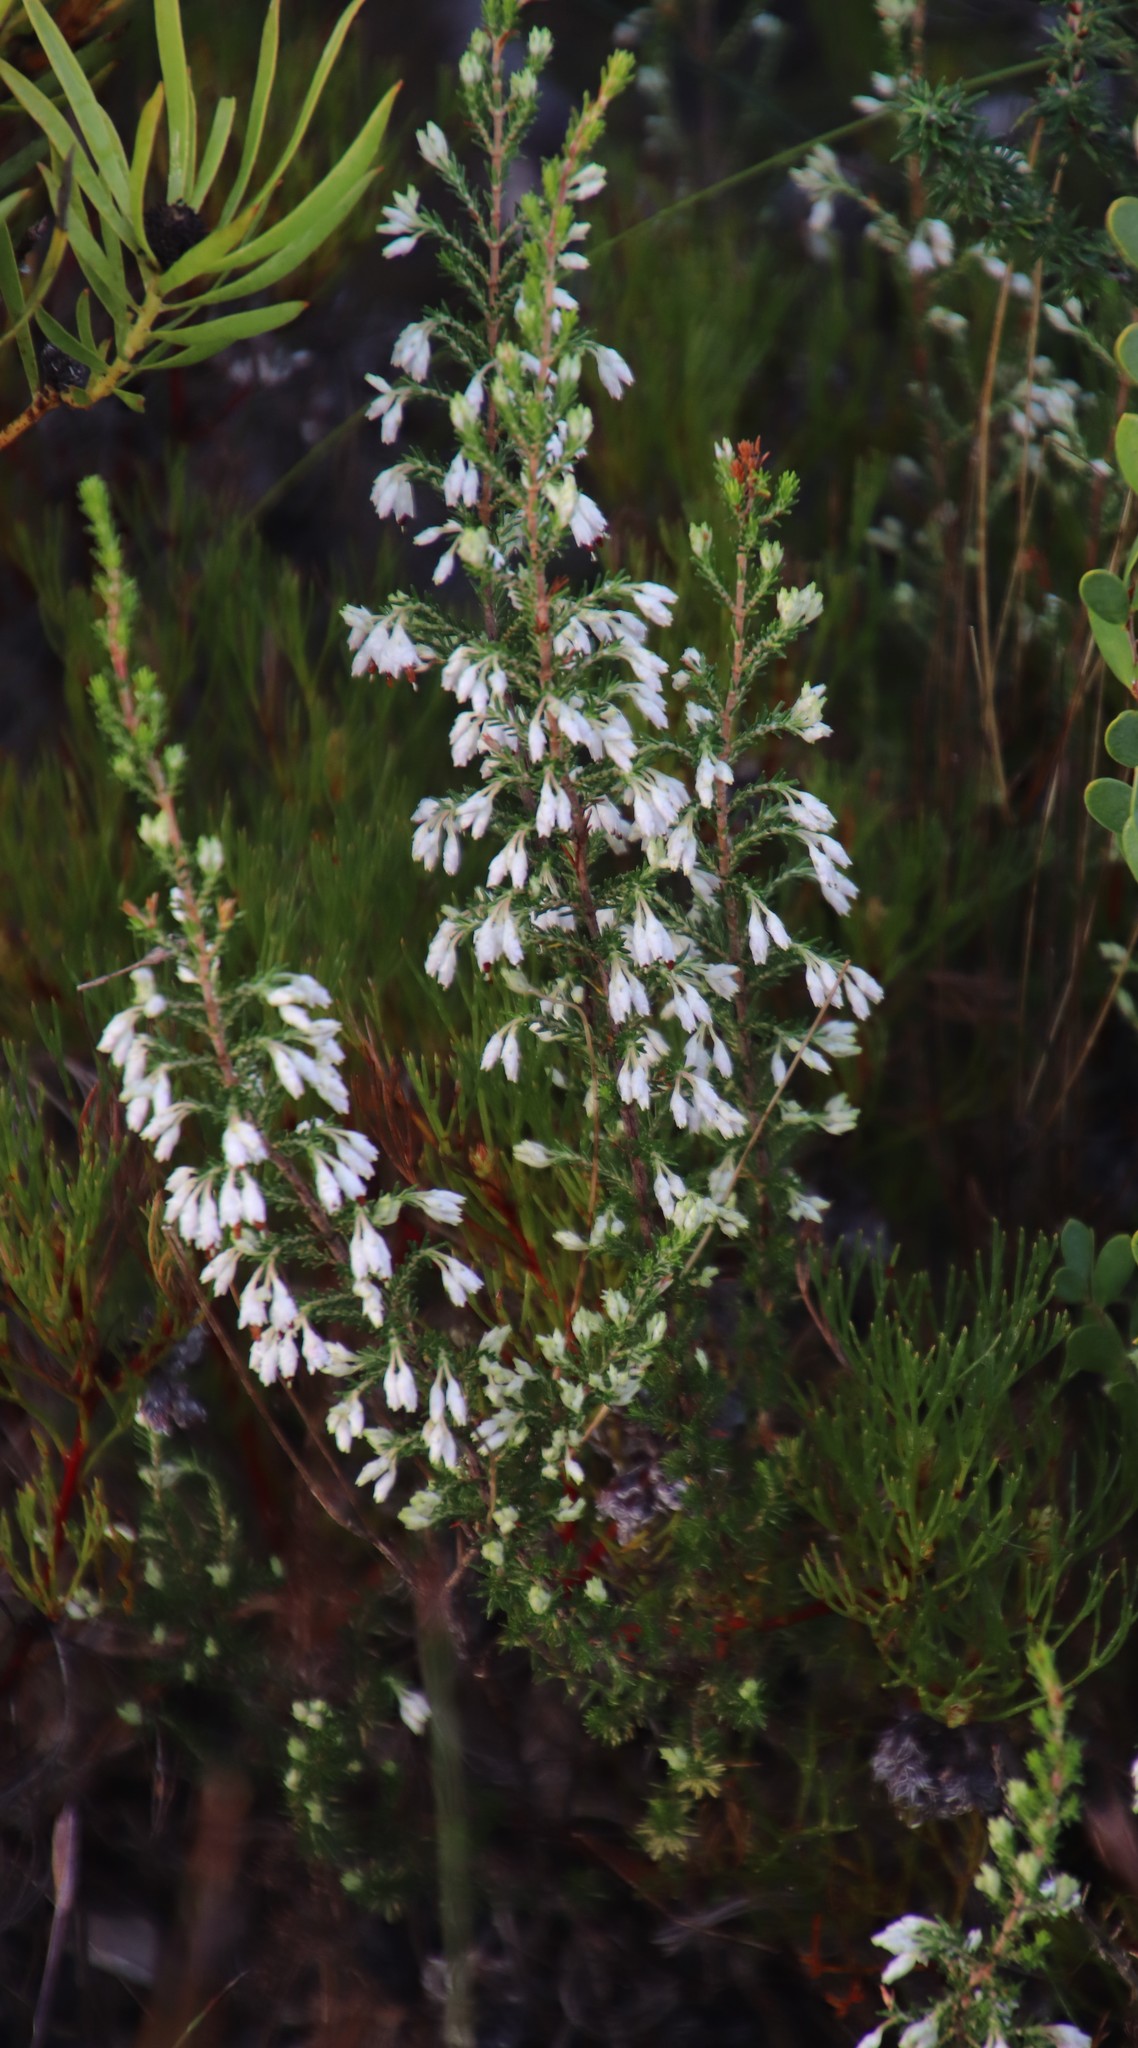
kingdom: Plantae
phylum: Tracheophyta
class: Magnoliopsida
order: Ericales
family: Ericaceae
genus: Erica
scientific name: Erica imbricata
